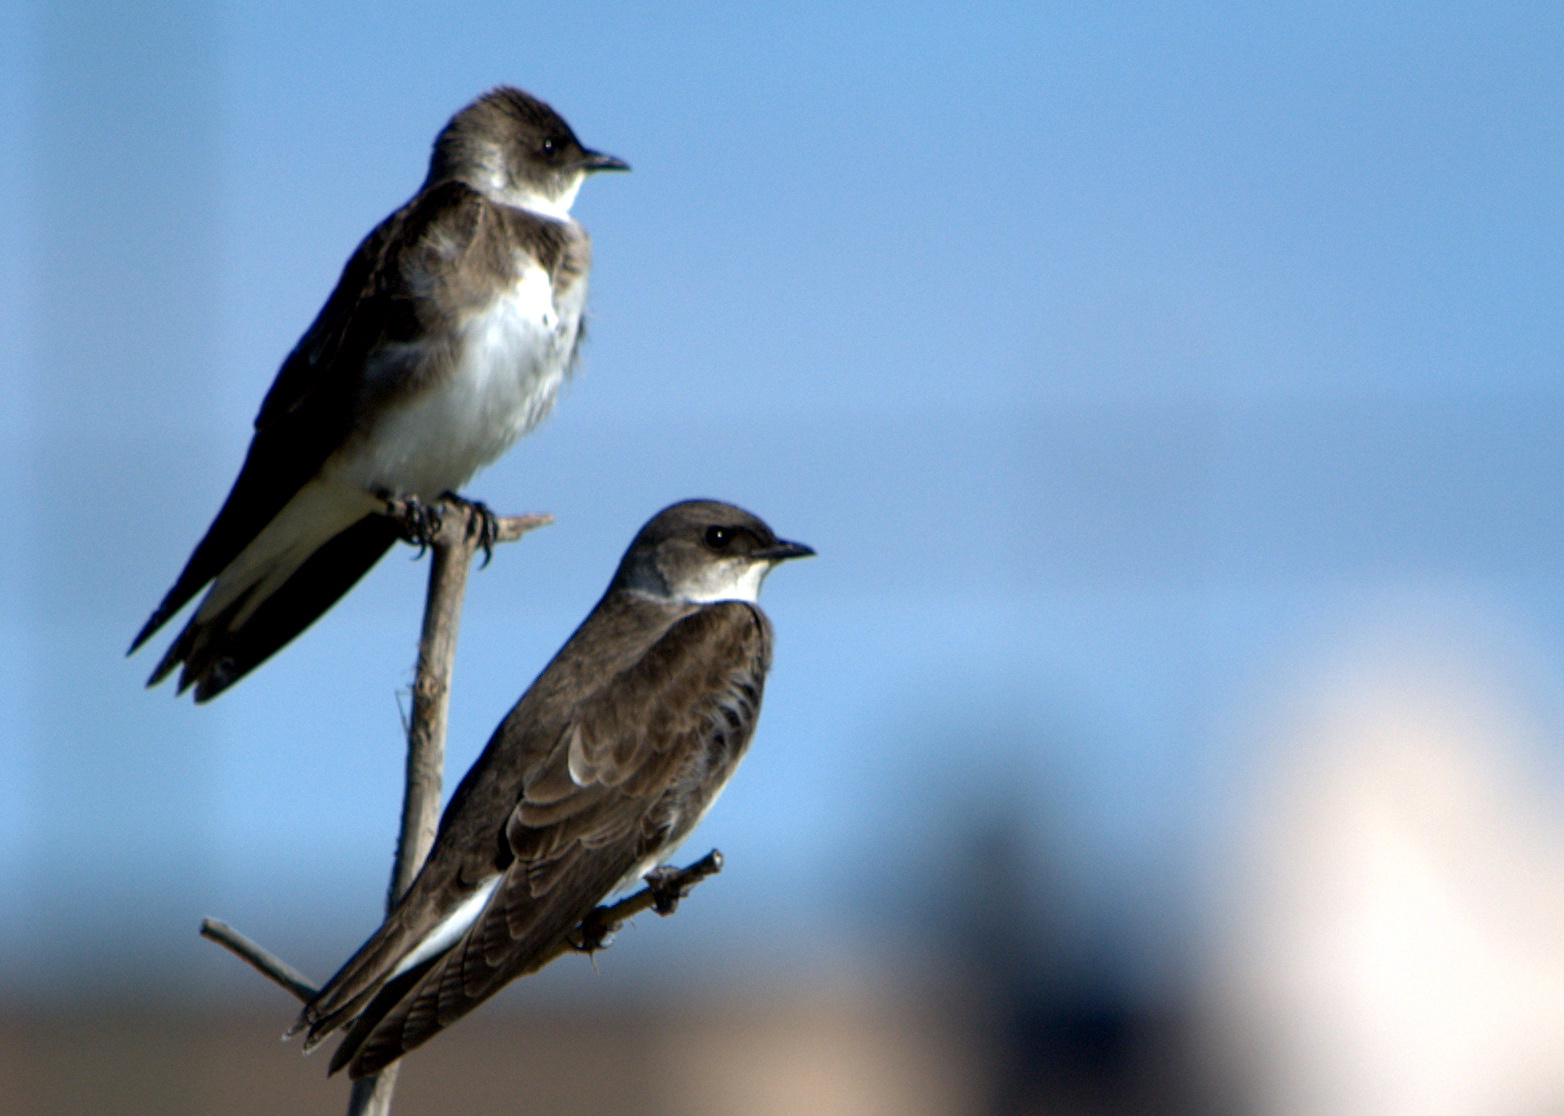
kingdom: Animalia
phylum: Chordata
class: Aves
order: Passeriformes
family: Hirundinidae
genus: Progne
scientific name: Progne tapera
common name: Brown-chested martin
